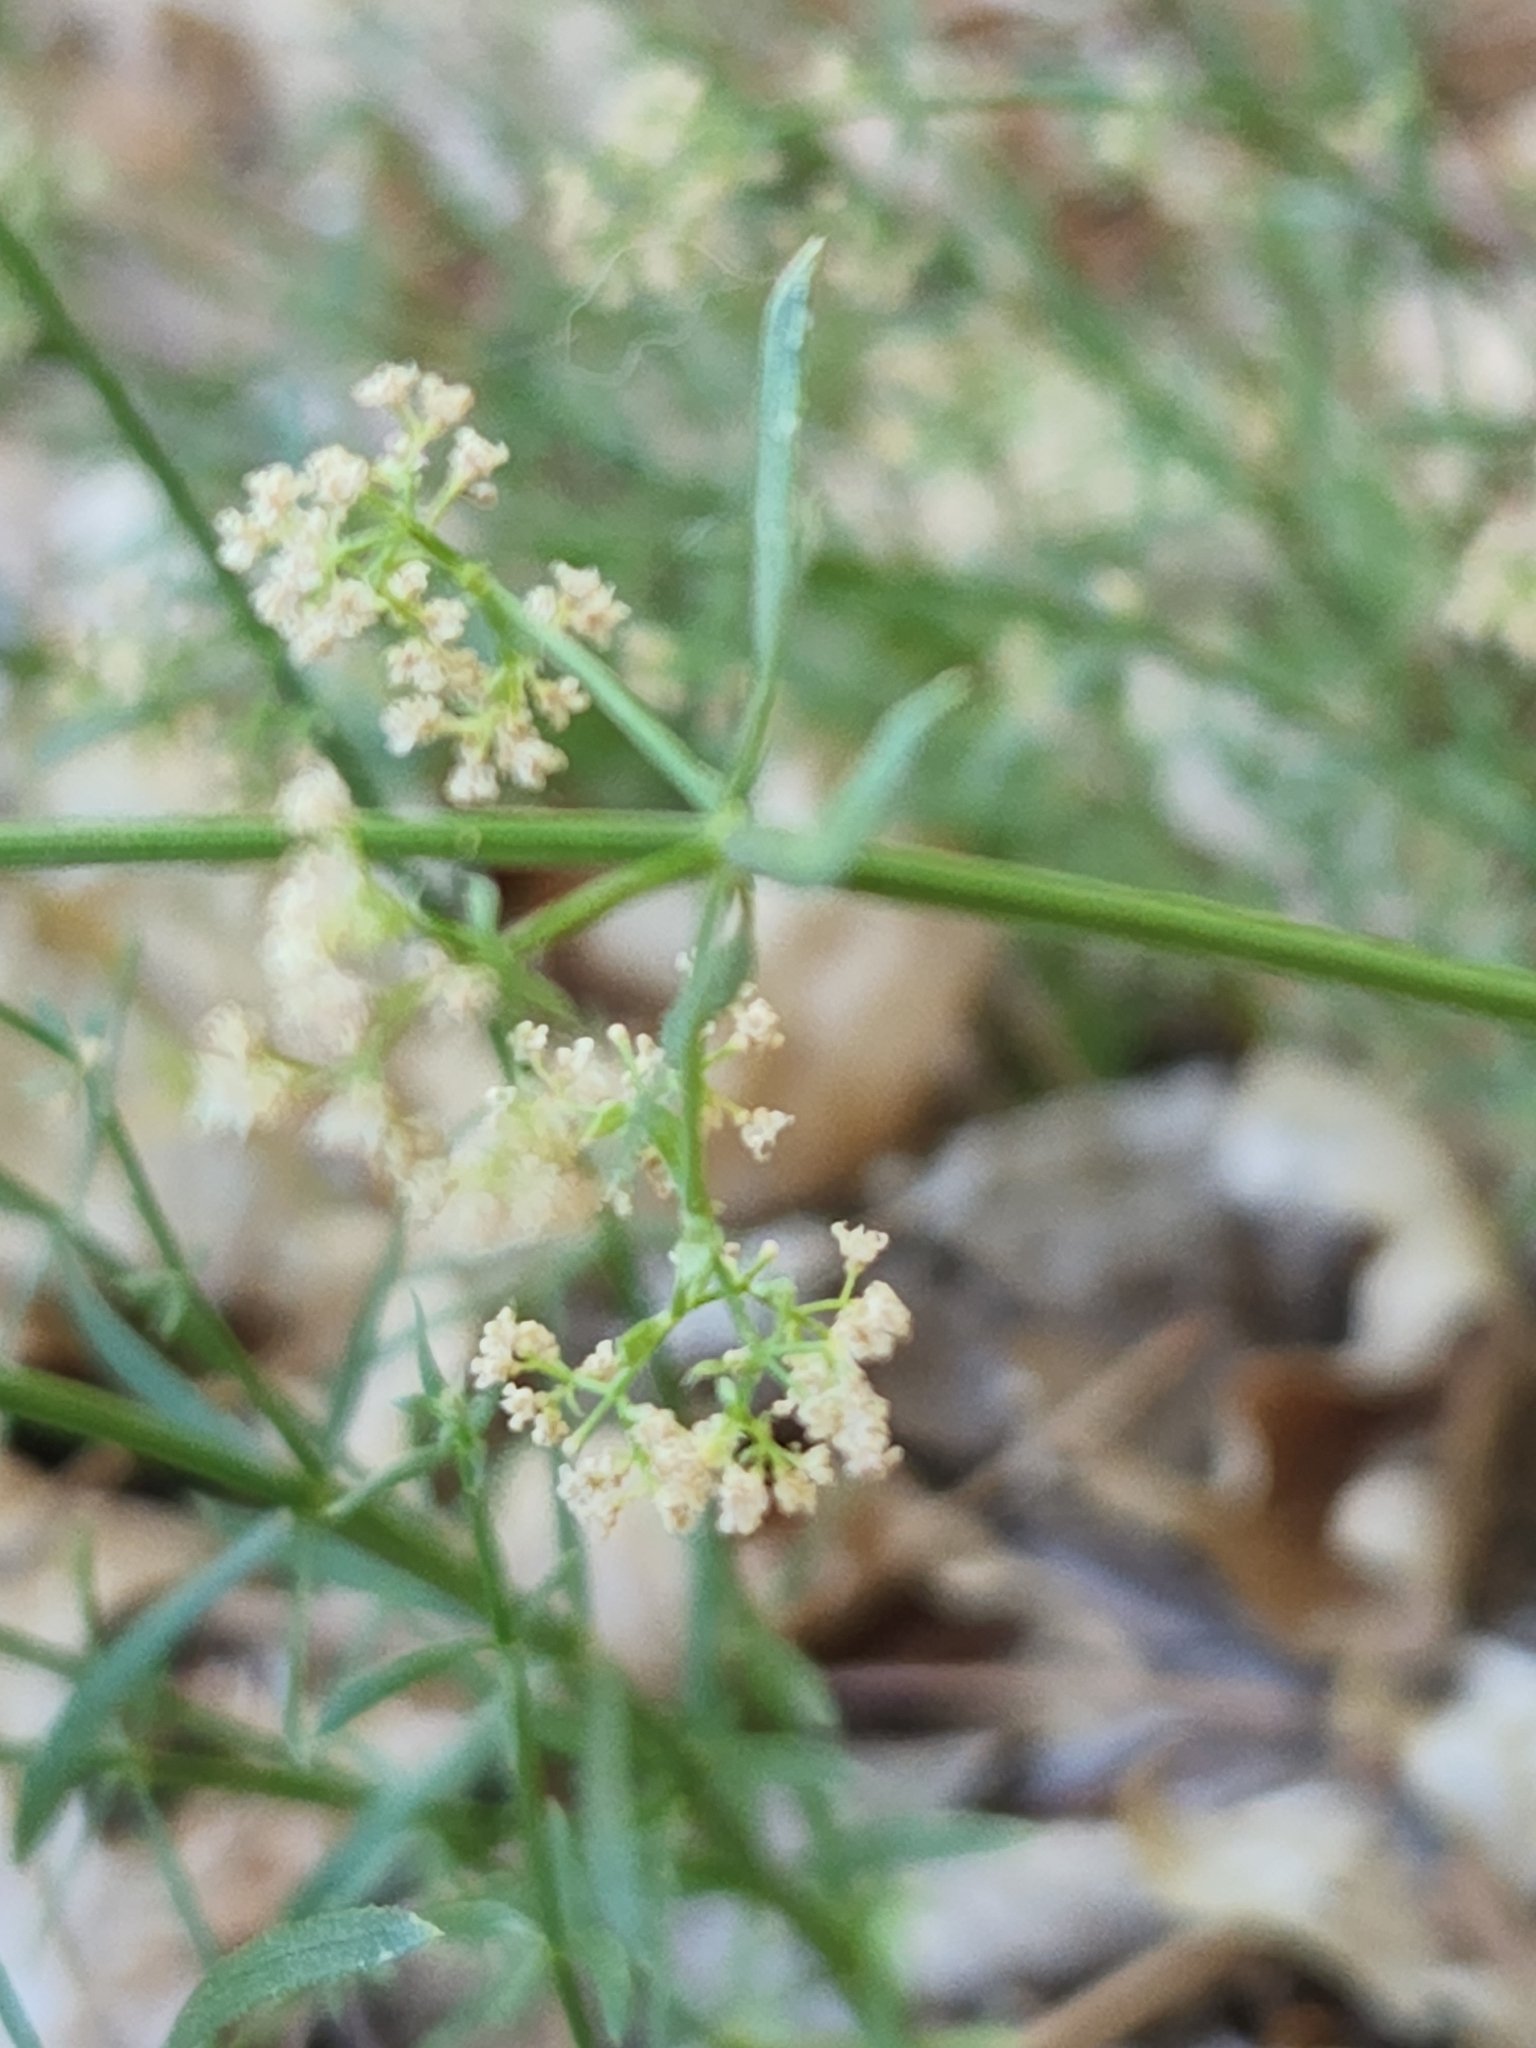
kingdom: Plantae
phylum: Tracheophyta
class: Magnoliopsida
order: Gentianales
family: Rubiaceae
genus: Galium
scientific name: Galium angustifolium
